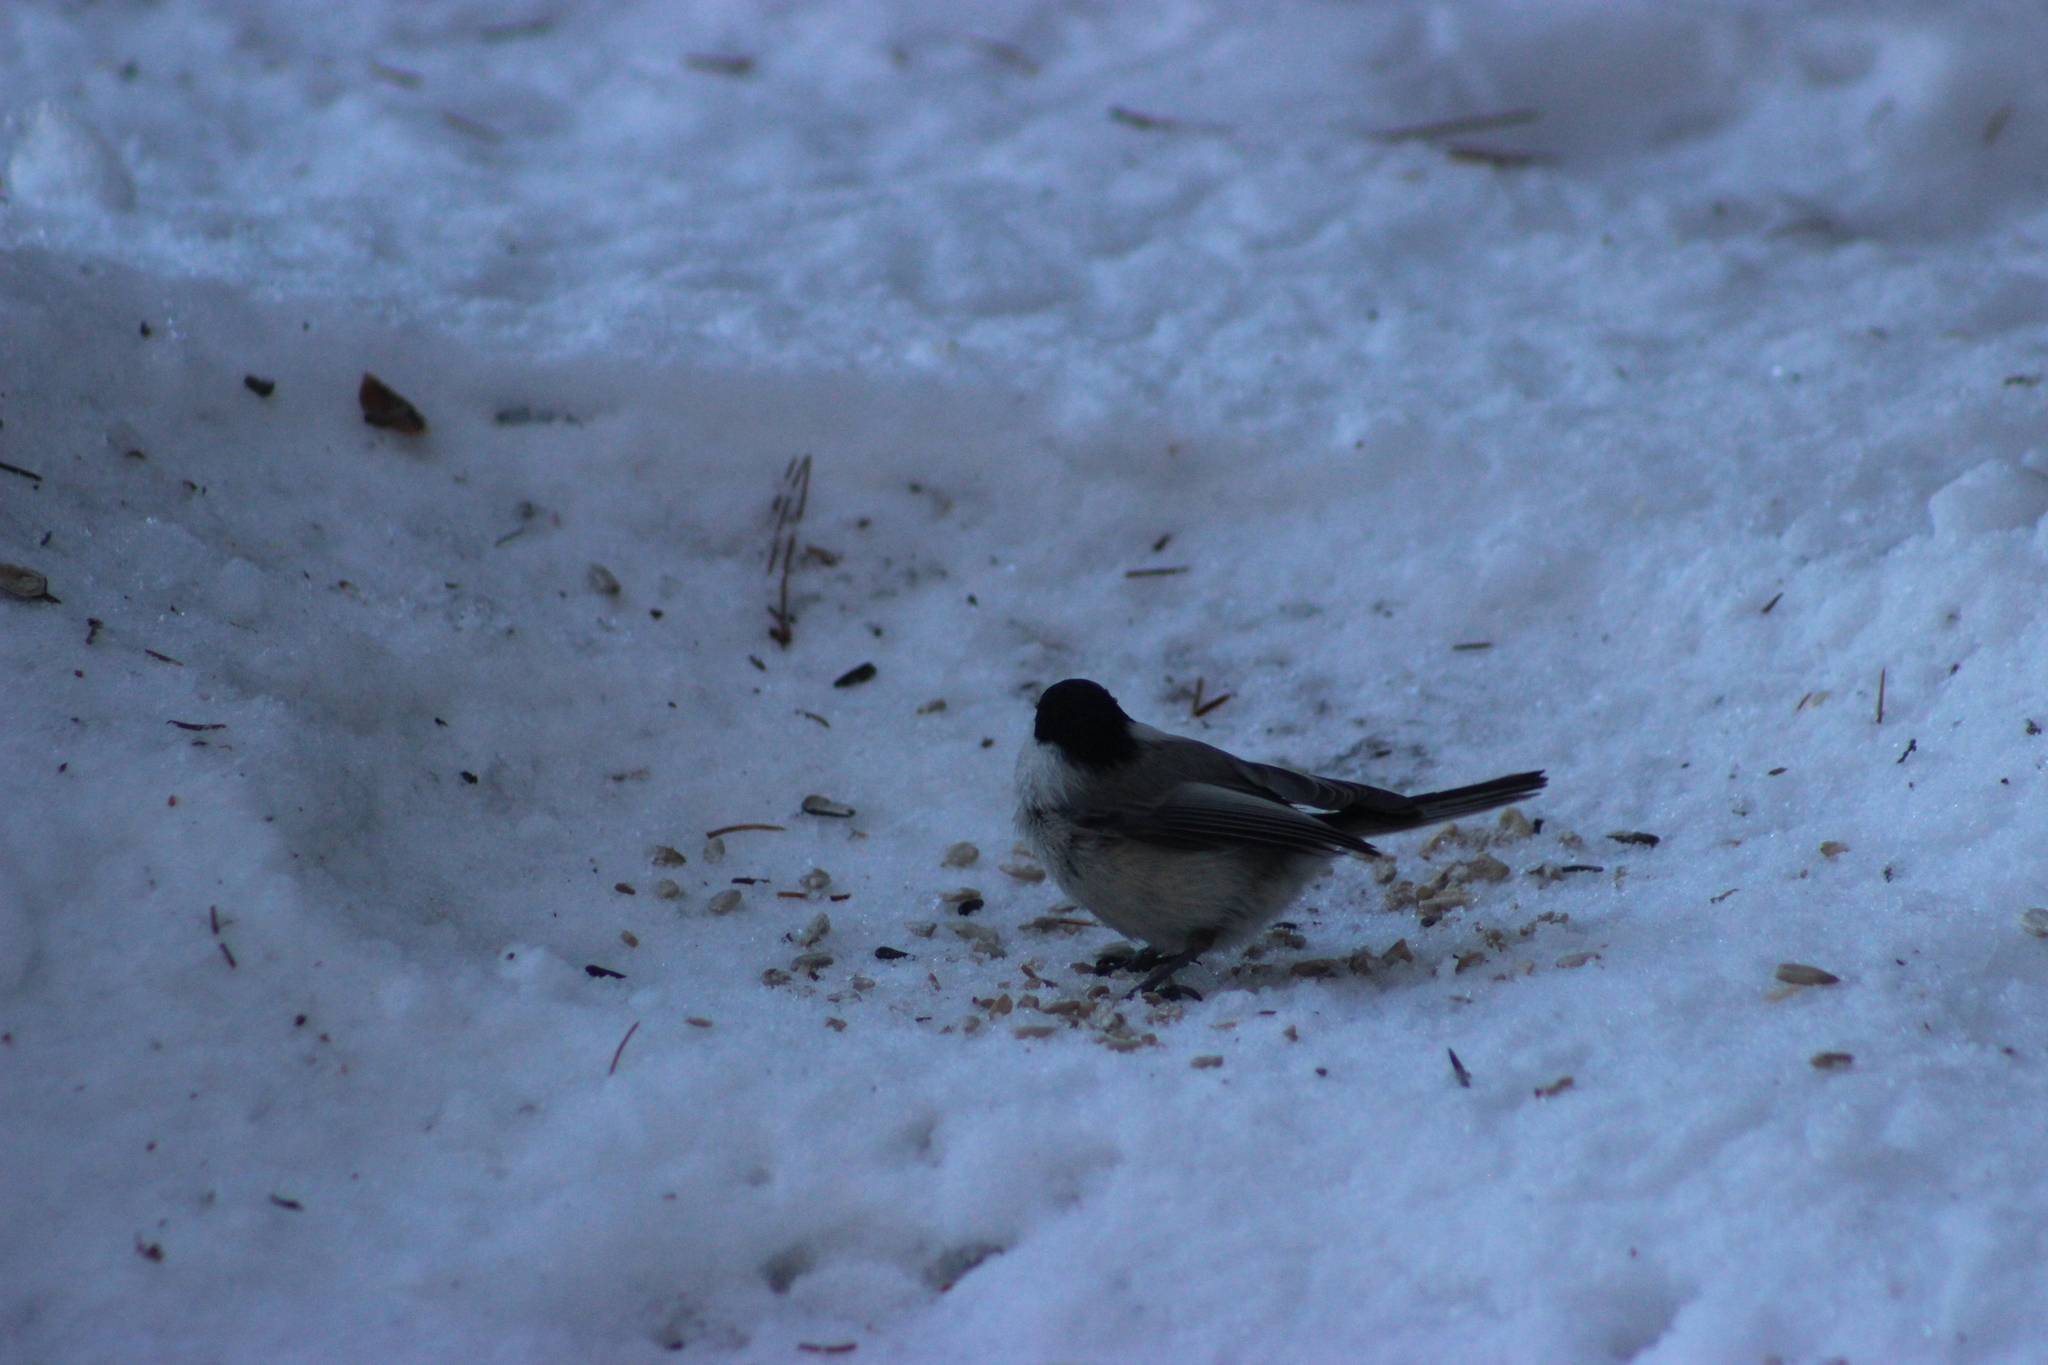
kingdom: Animalia
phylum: Chordata
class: Aves
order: Passeriformes
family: Paridae
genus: Poecile
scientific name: Poecile montanus
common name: Willow tit
